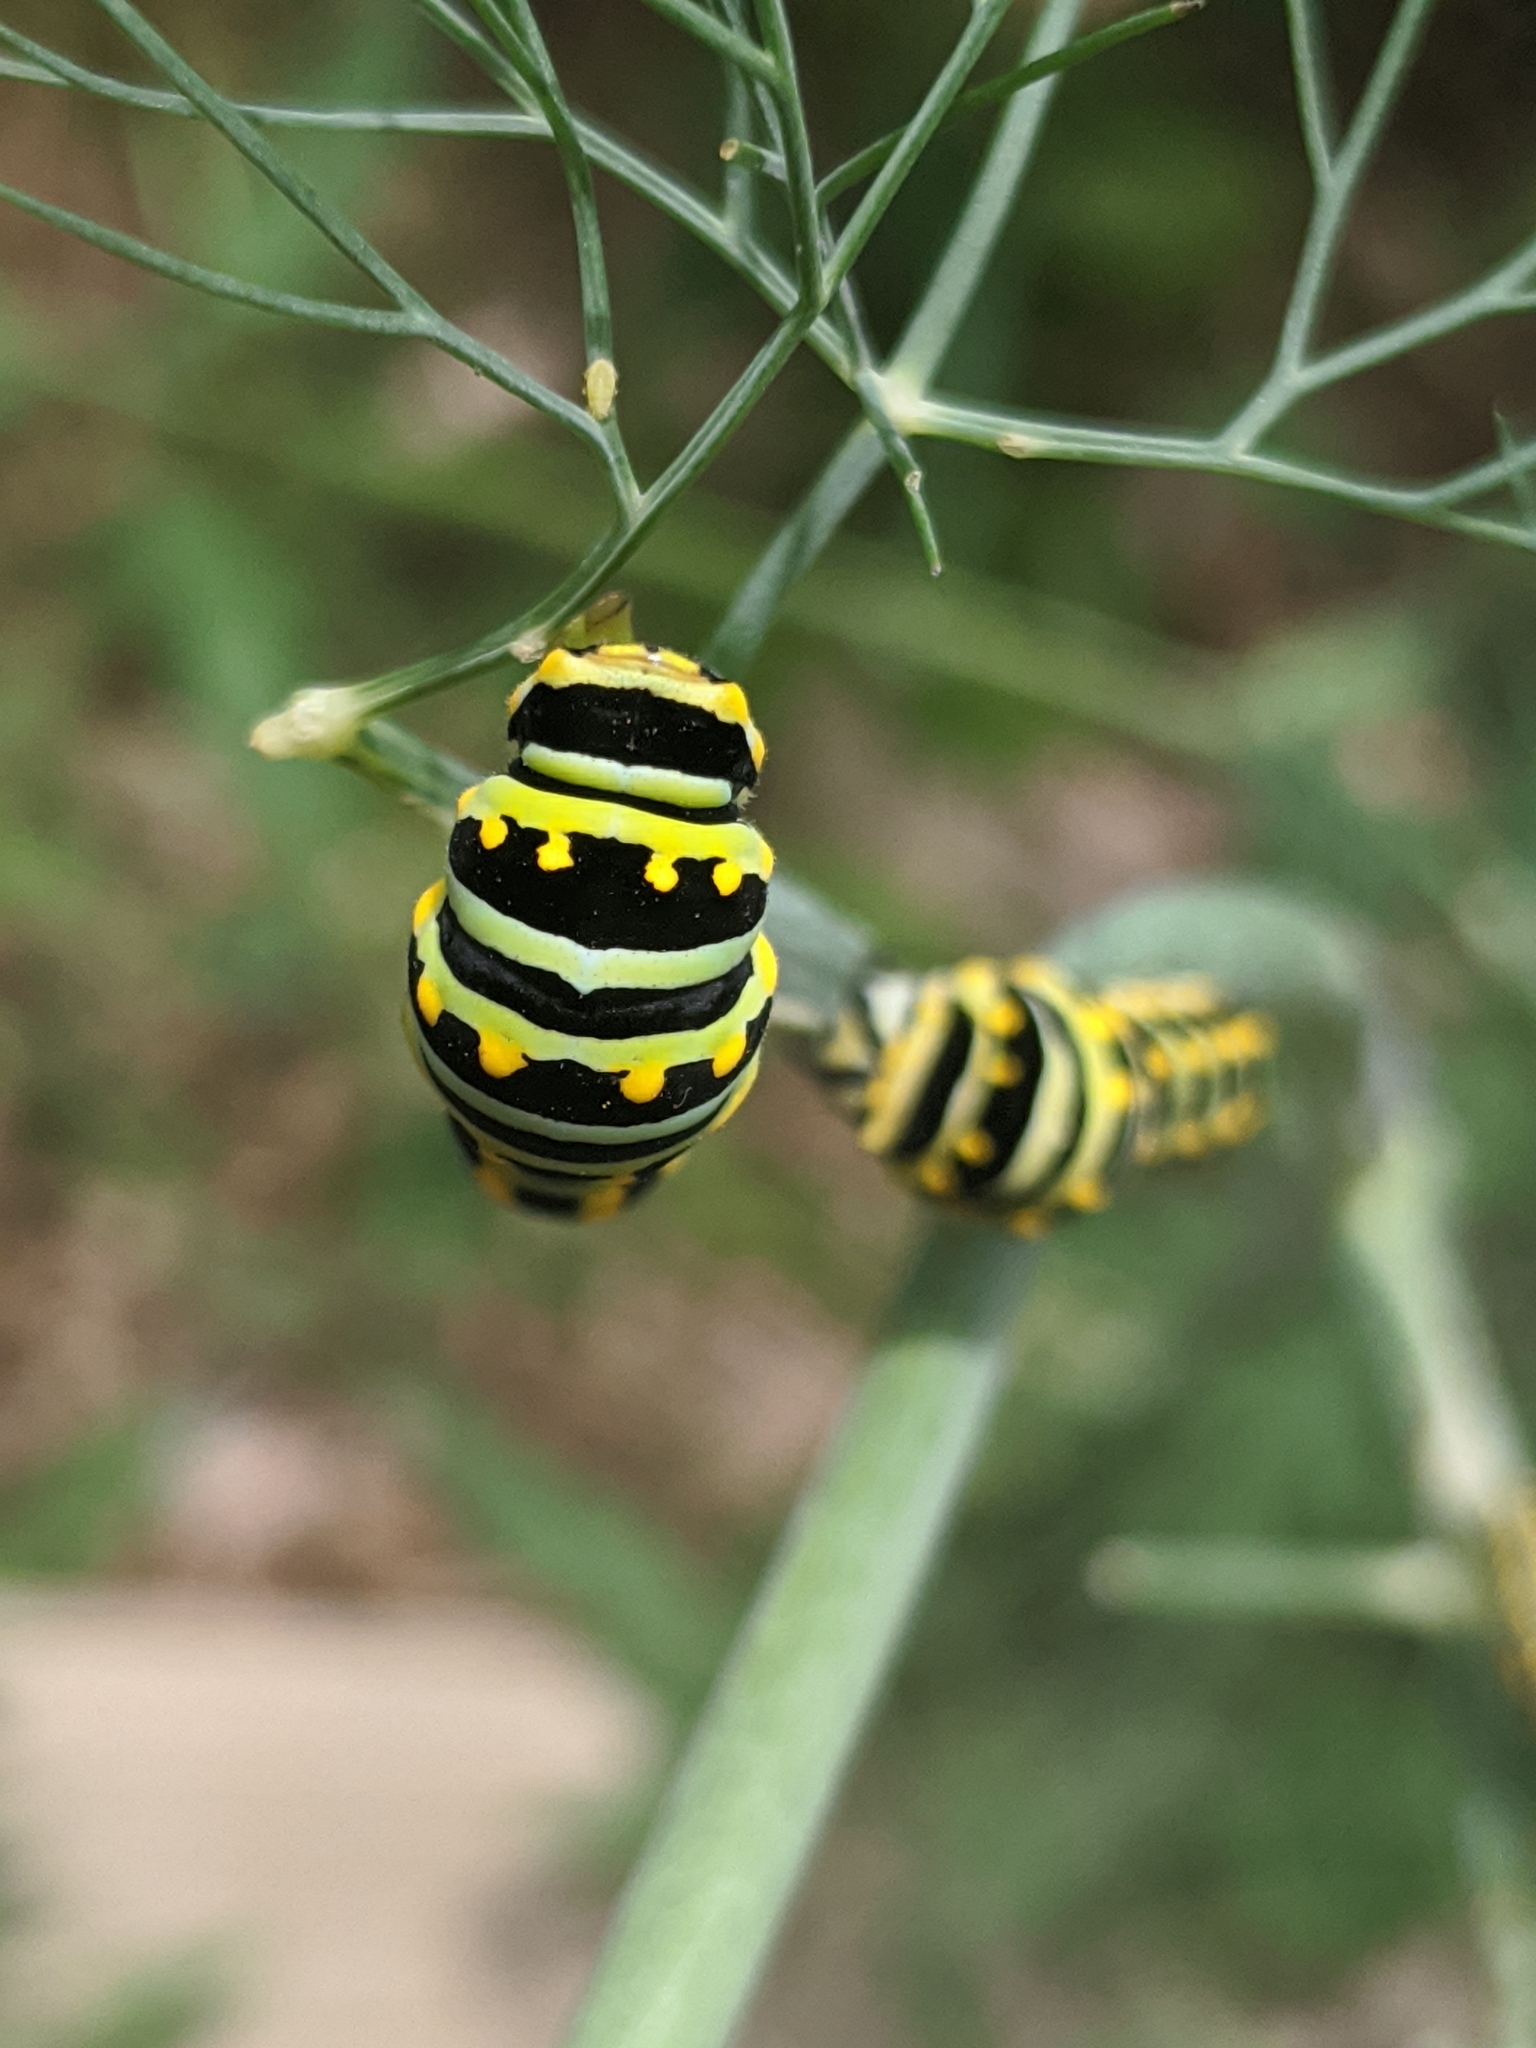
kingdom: Animalia
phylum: Arthropoda
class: Insecta
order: Lepidoptera
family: Papilionidae
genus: Papilio
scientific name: Papilio polyxenes
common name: Black swallowtail
